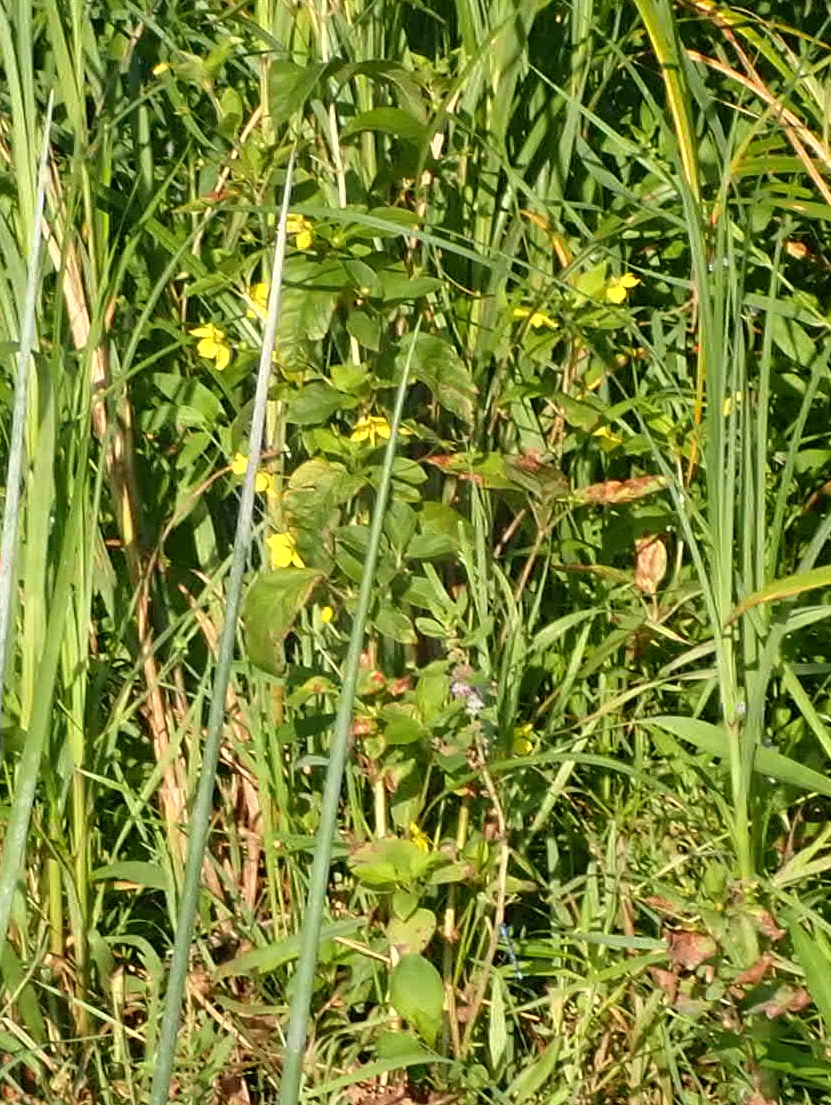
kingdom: Plantae
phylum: Tracheophyta
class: Magnoliopsida
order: Ericales
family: Primulaceae
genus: Lysimachia
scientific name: Lysimachia ciliata
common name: Fringed loosestrife
